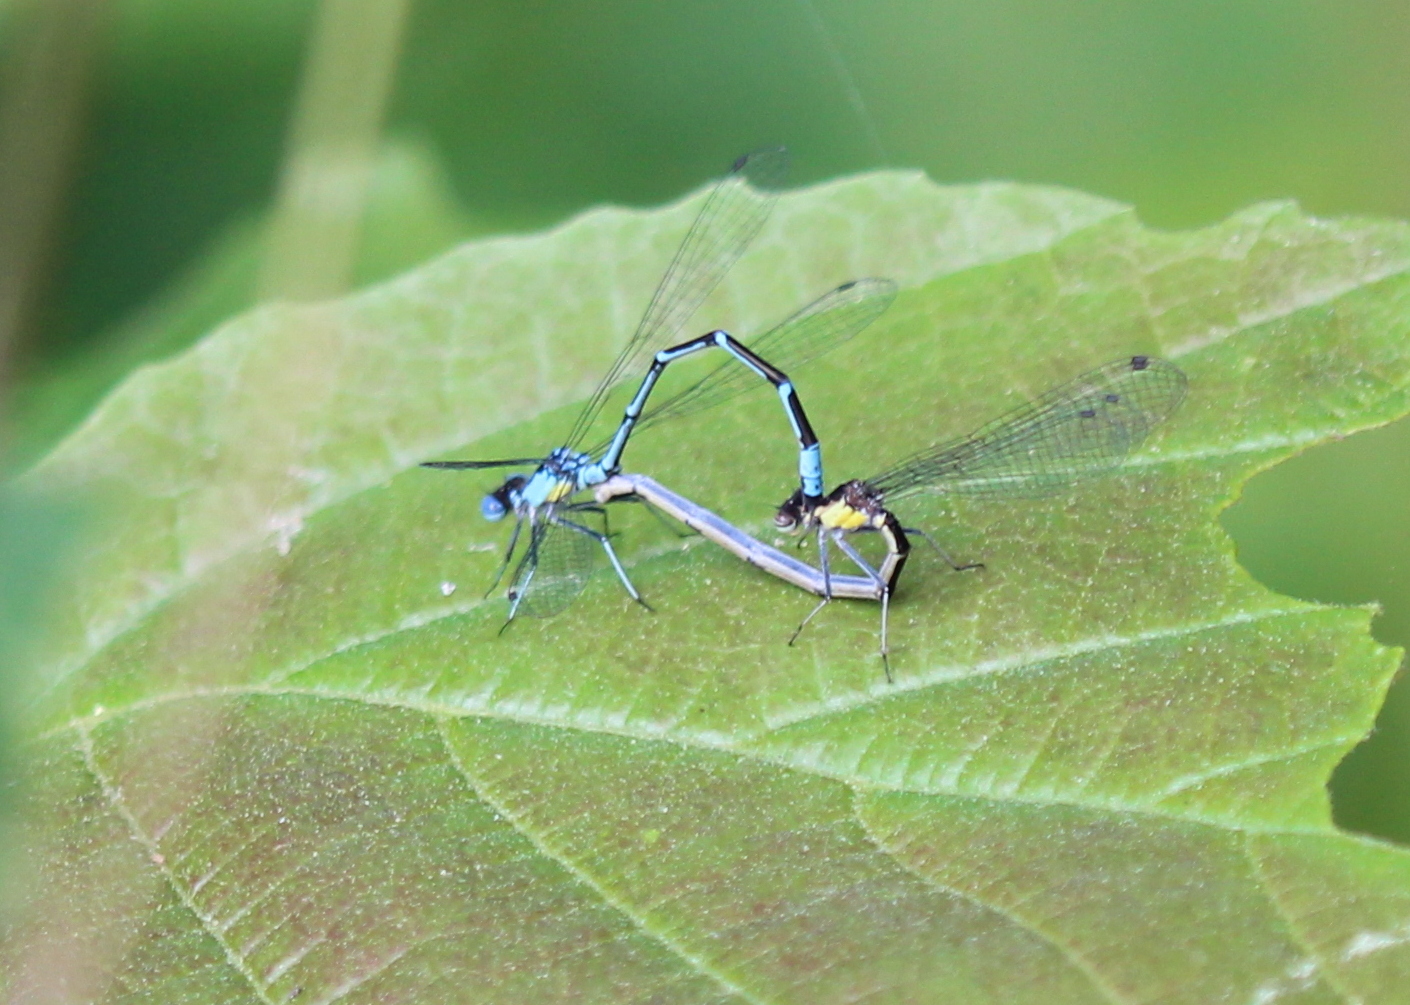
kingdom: Animalia
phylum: Arthropoda
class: Insecta
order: Odonata
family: Coenagrionidae
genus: Chromagrion
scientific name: Chromagrion conditum
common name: Aurora damsel
